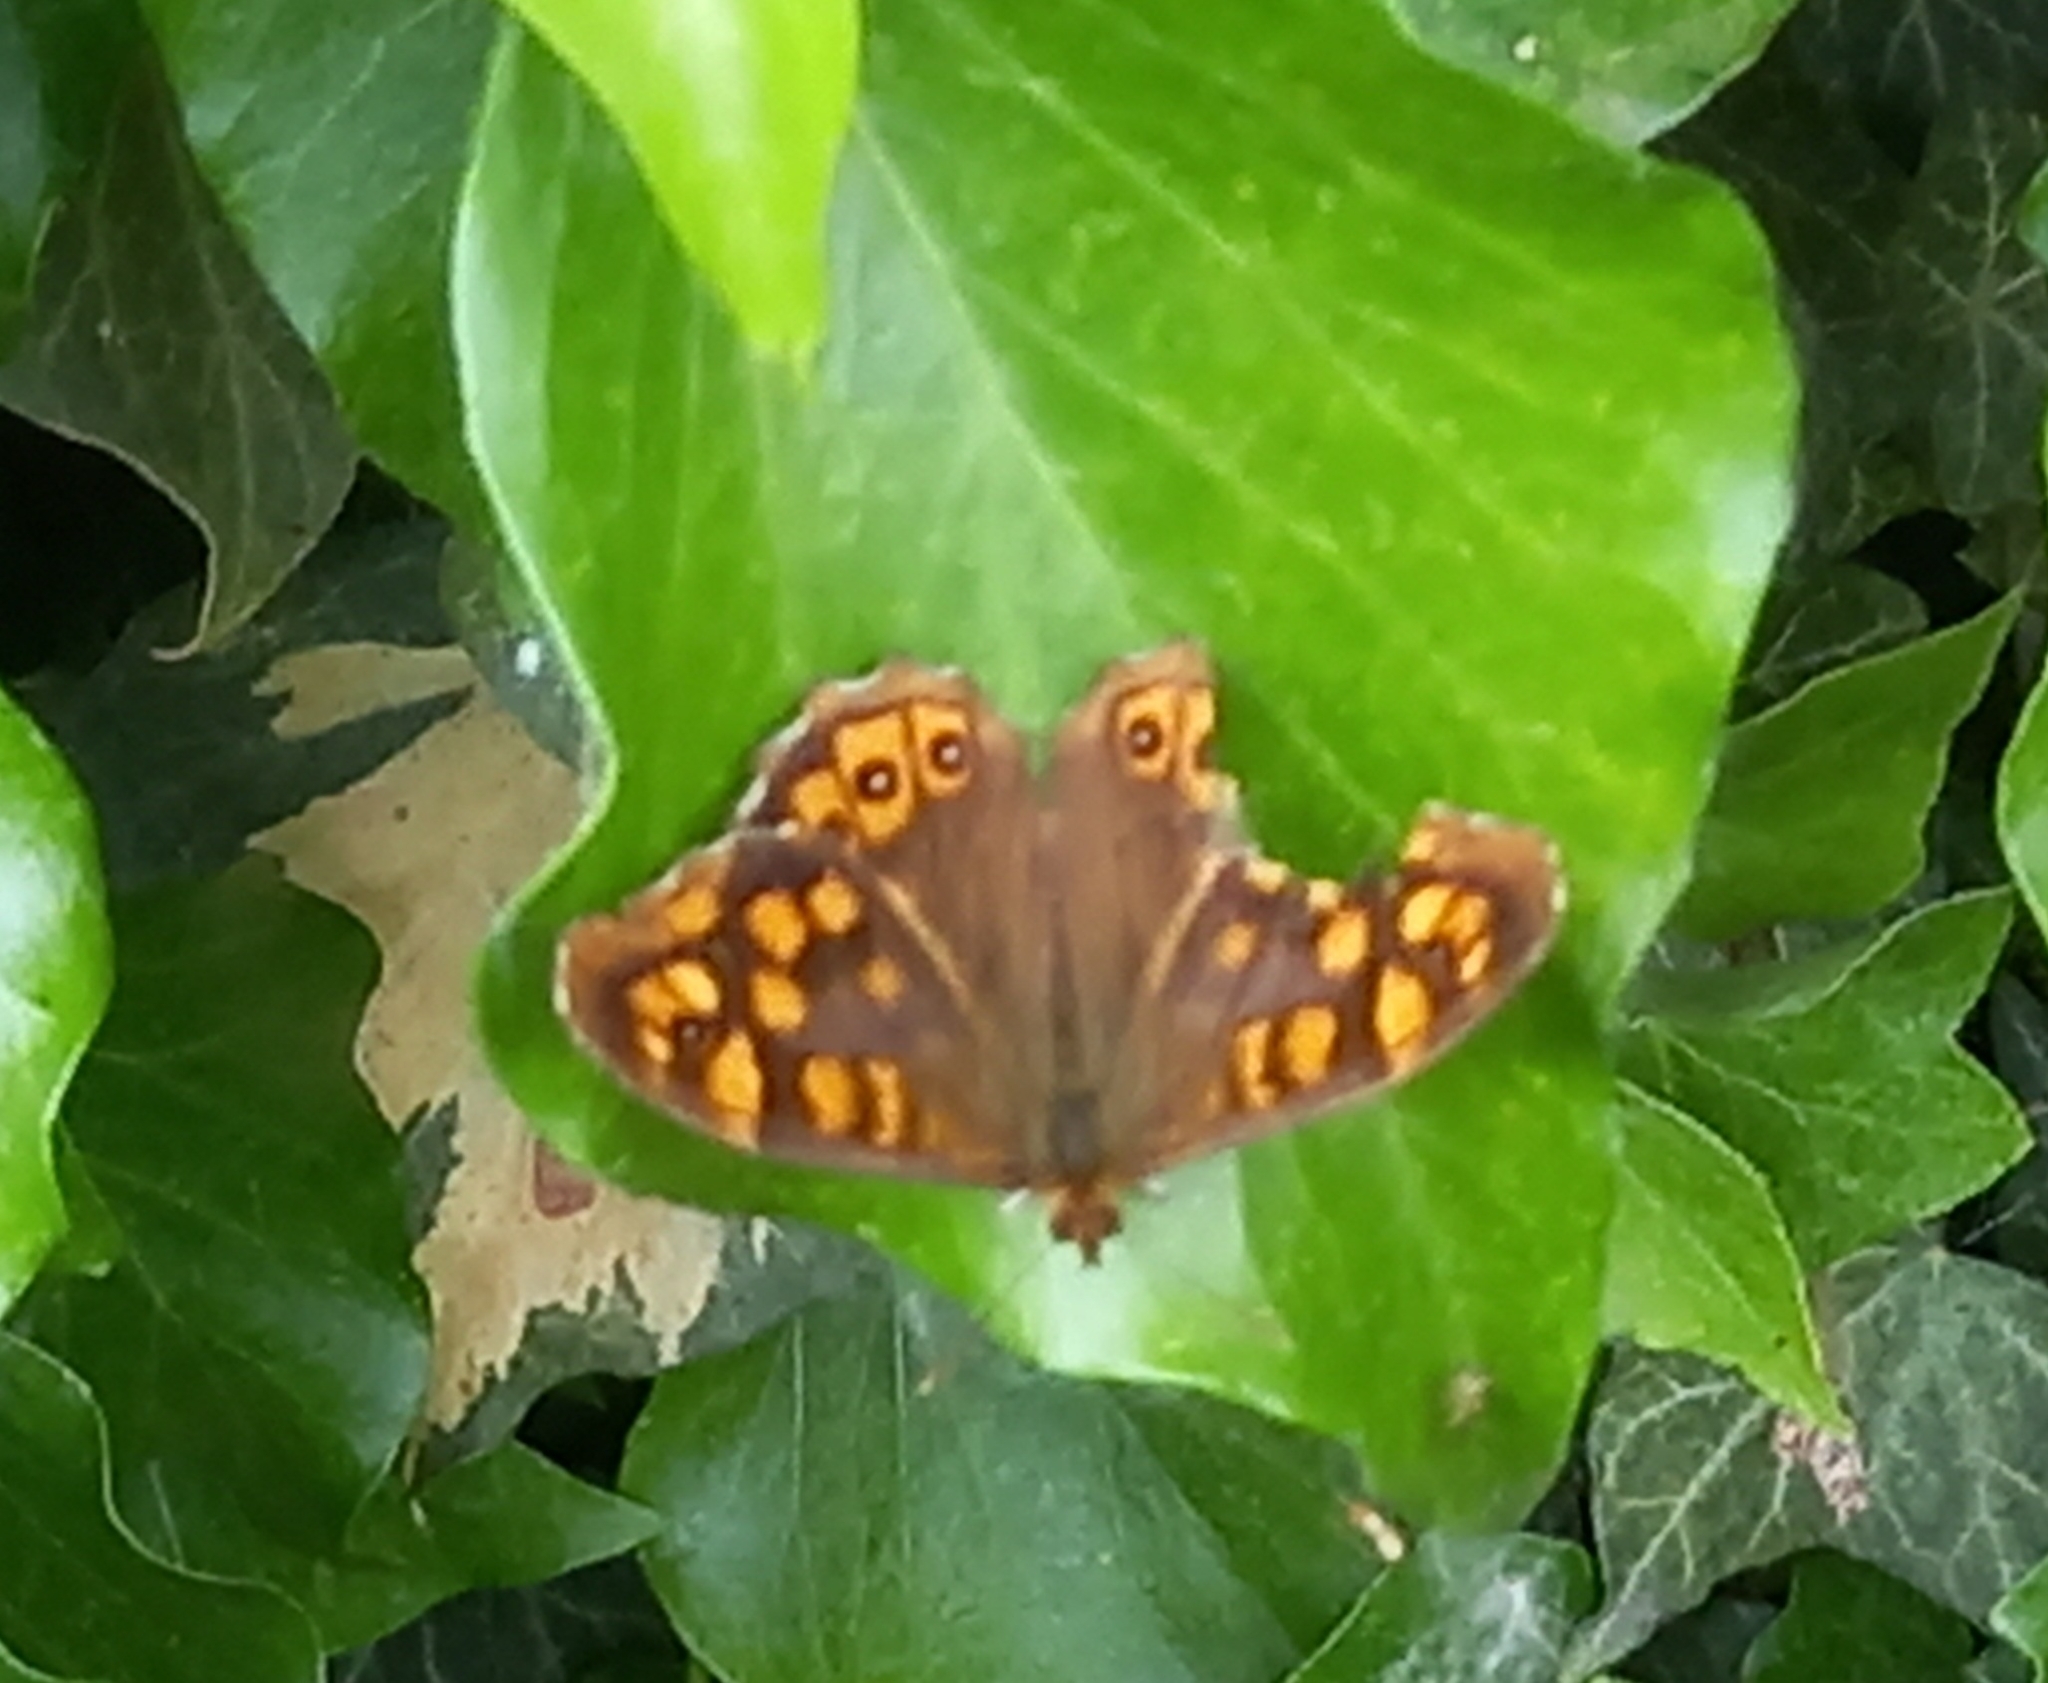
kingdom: Animalia
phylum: Arthropoda
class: Insecta
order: Lepidoptera
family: Nymphalidae
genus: Pararge
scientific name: Pararge aegeria
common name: Speckled wood
